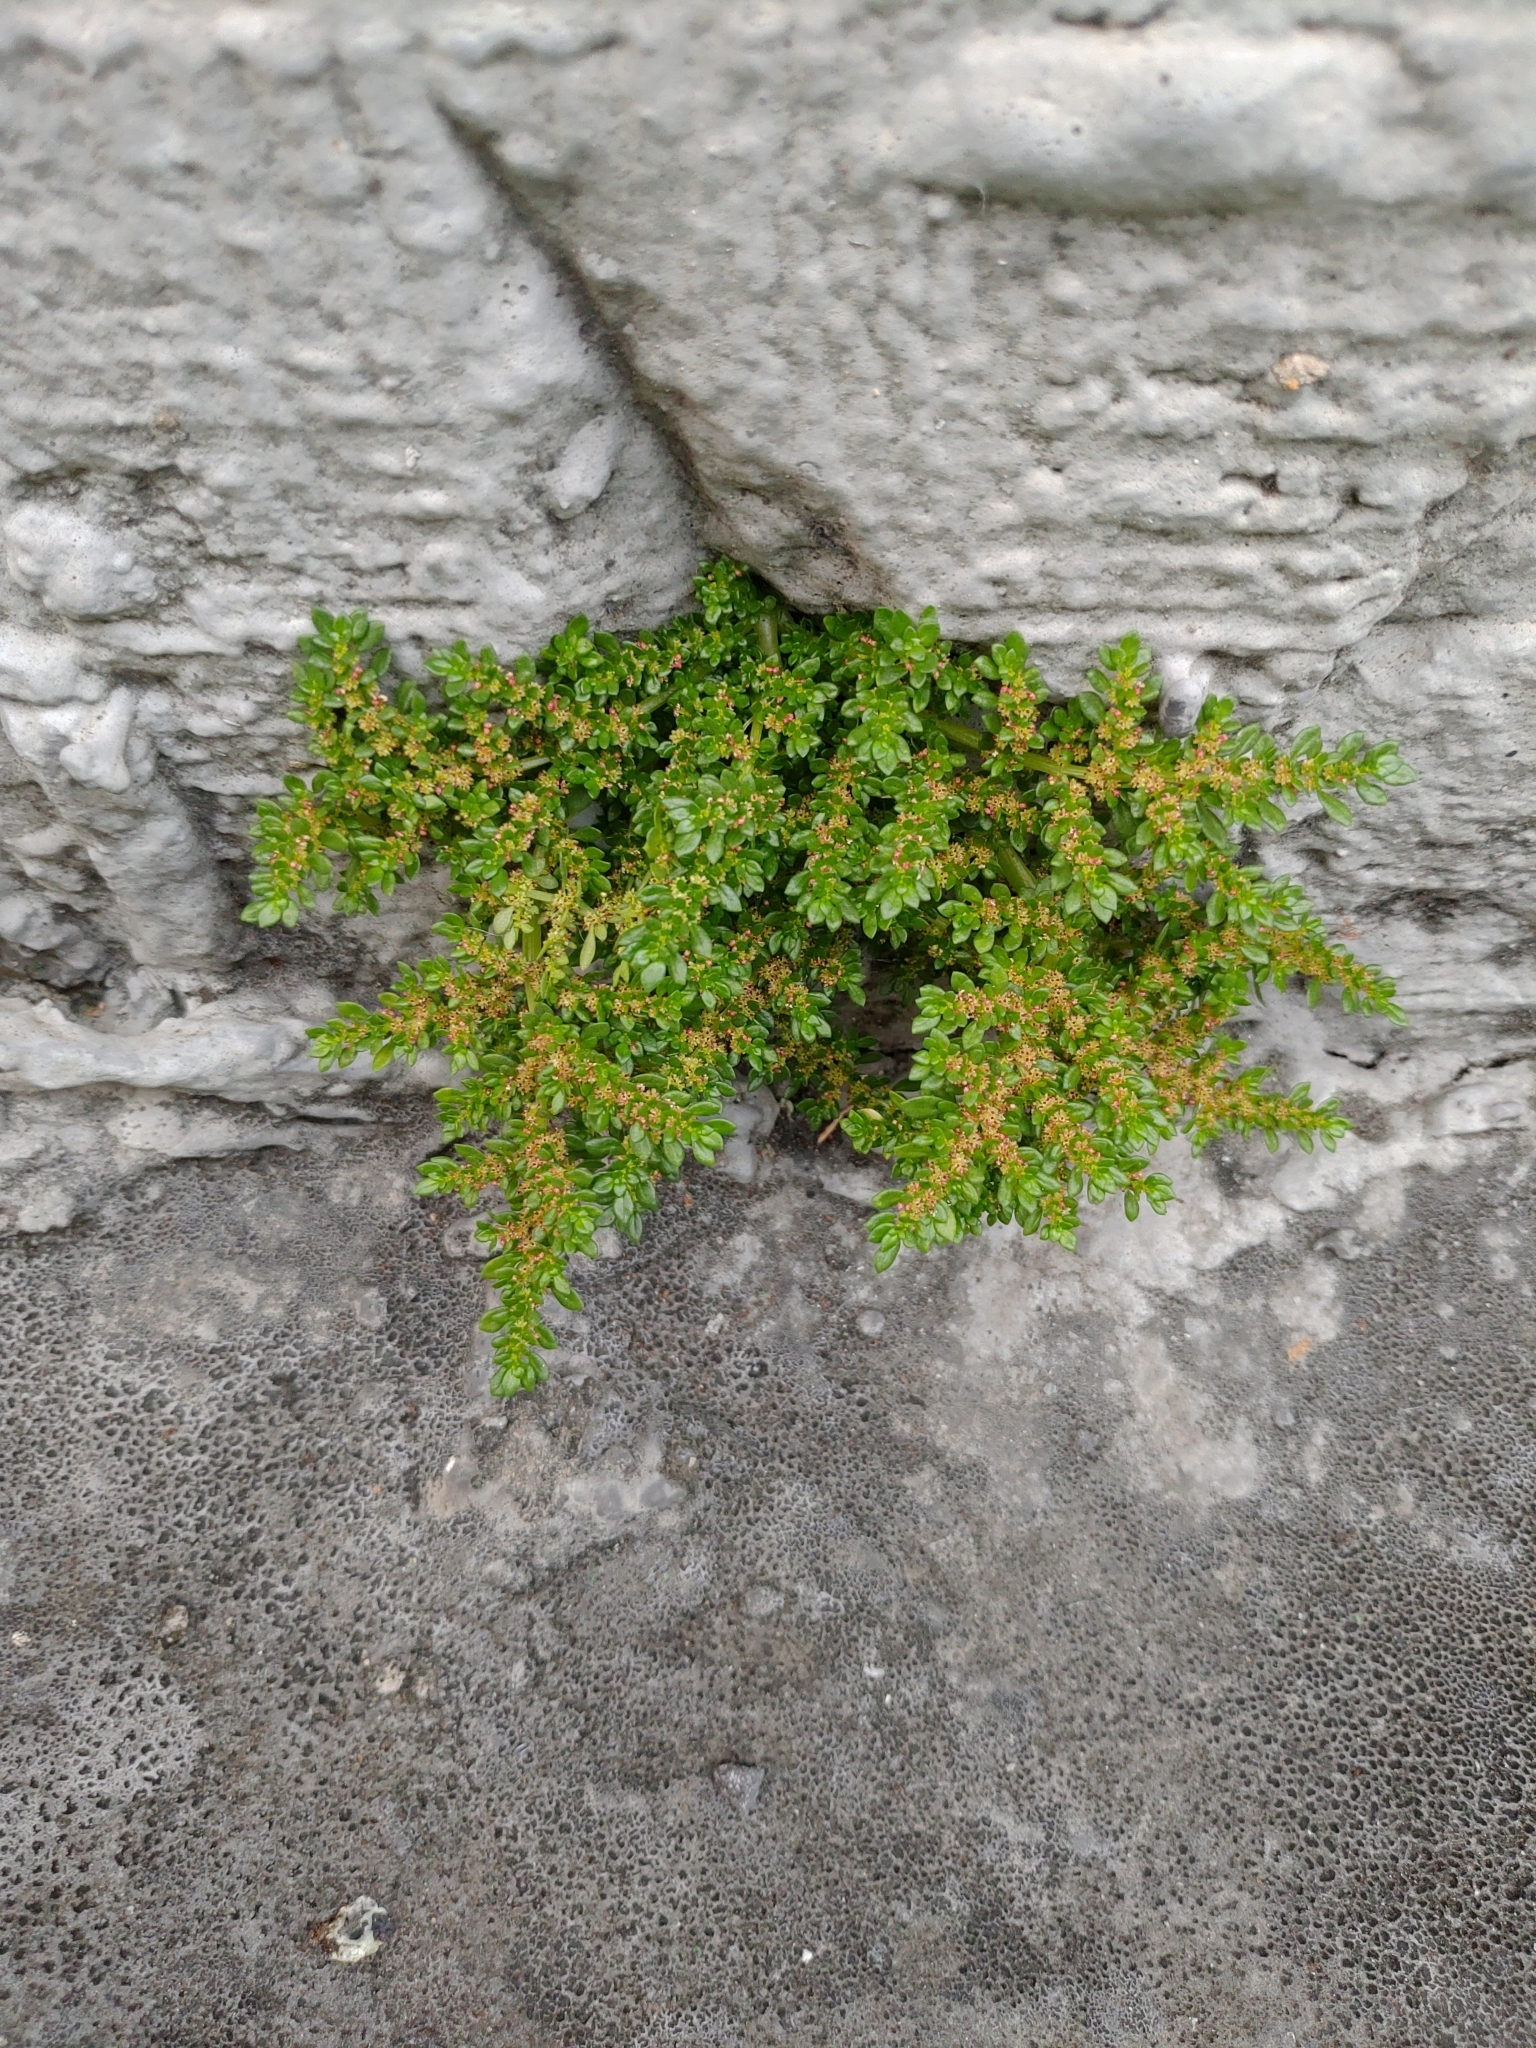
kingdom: Plantae
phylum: Tracheophyta
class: Magnoliopsida
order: Rosales
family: Urticaceae
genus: Pilea
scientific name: Pilea microphylla
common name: Artillery-plant
